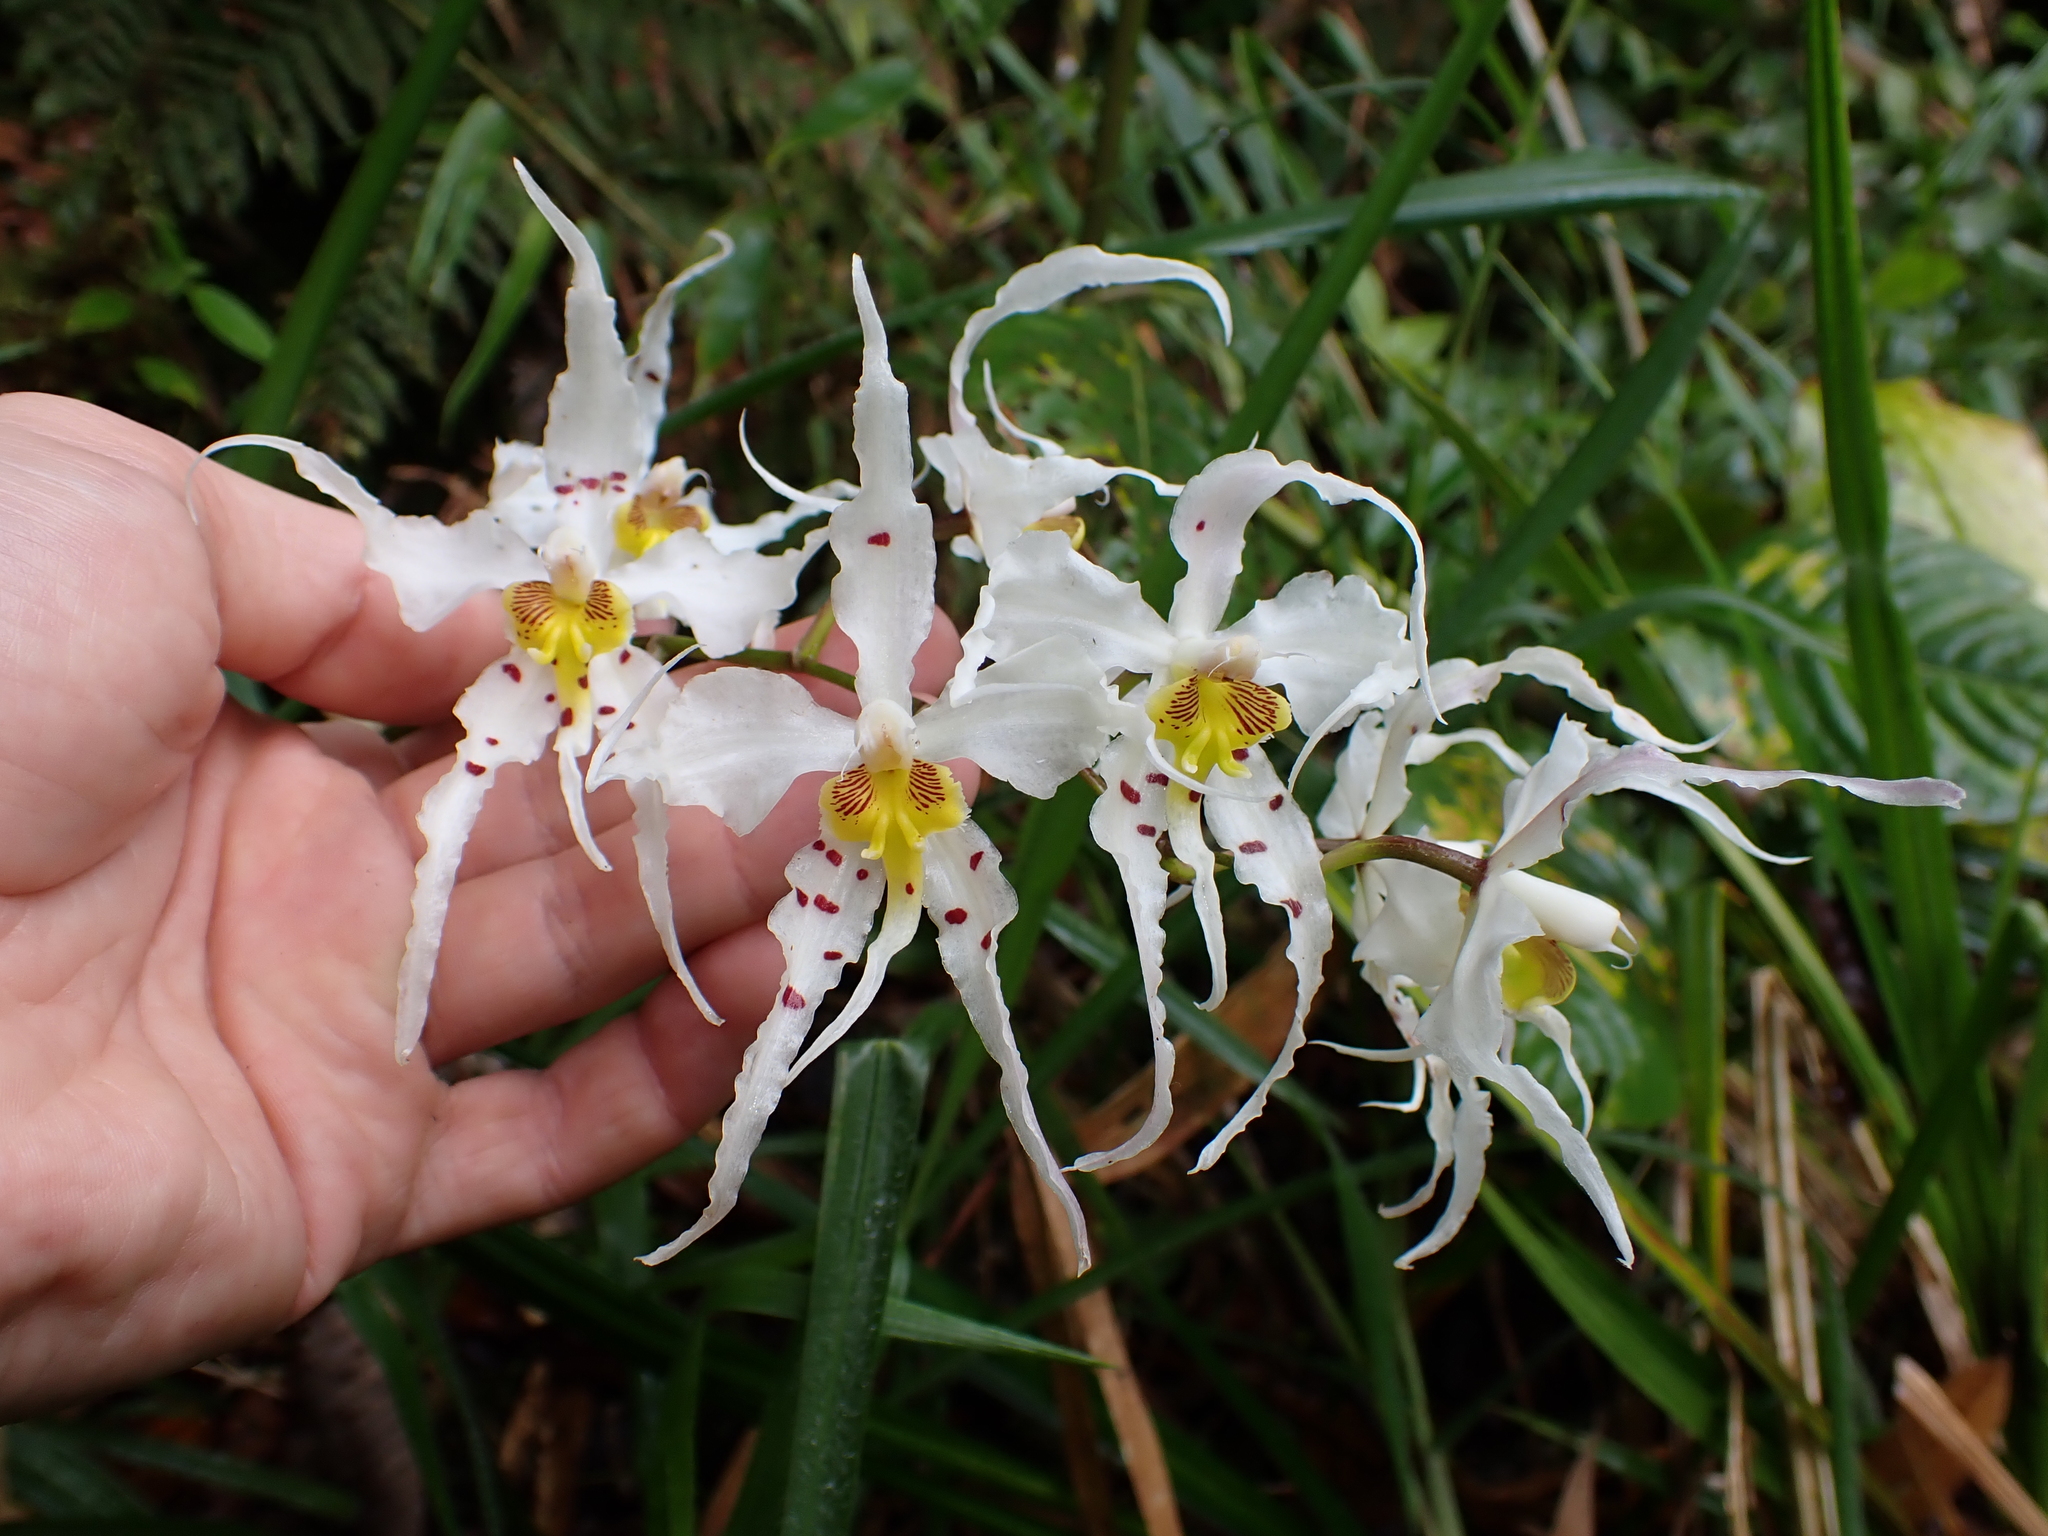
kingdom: Plantae
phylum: Tracheophyta
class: Liliopsida
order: Asparagales
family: Orchidaceae
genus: Oncidium
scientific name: Oncidium cirrhosum
